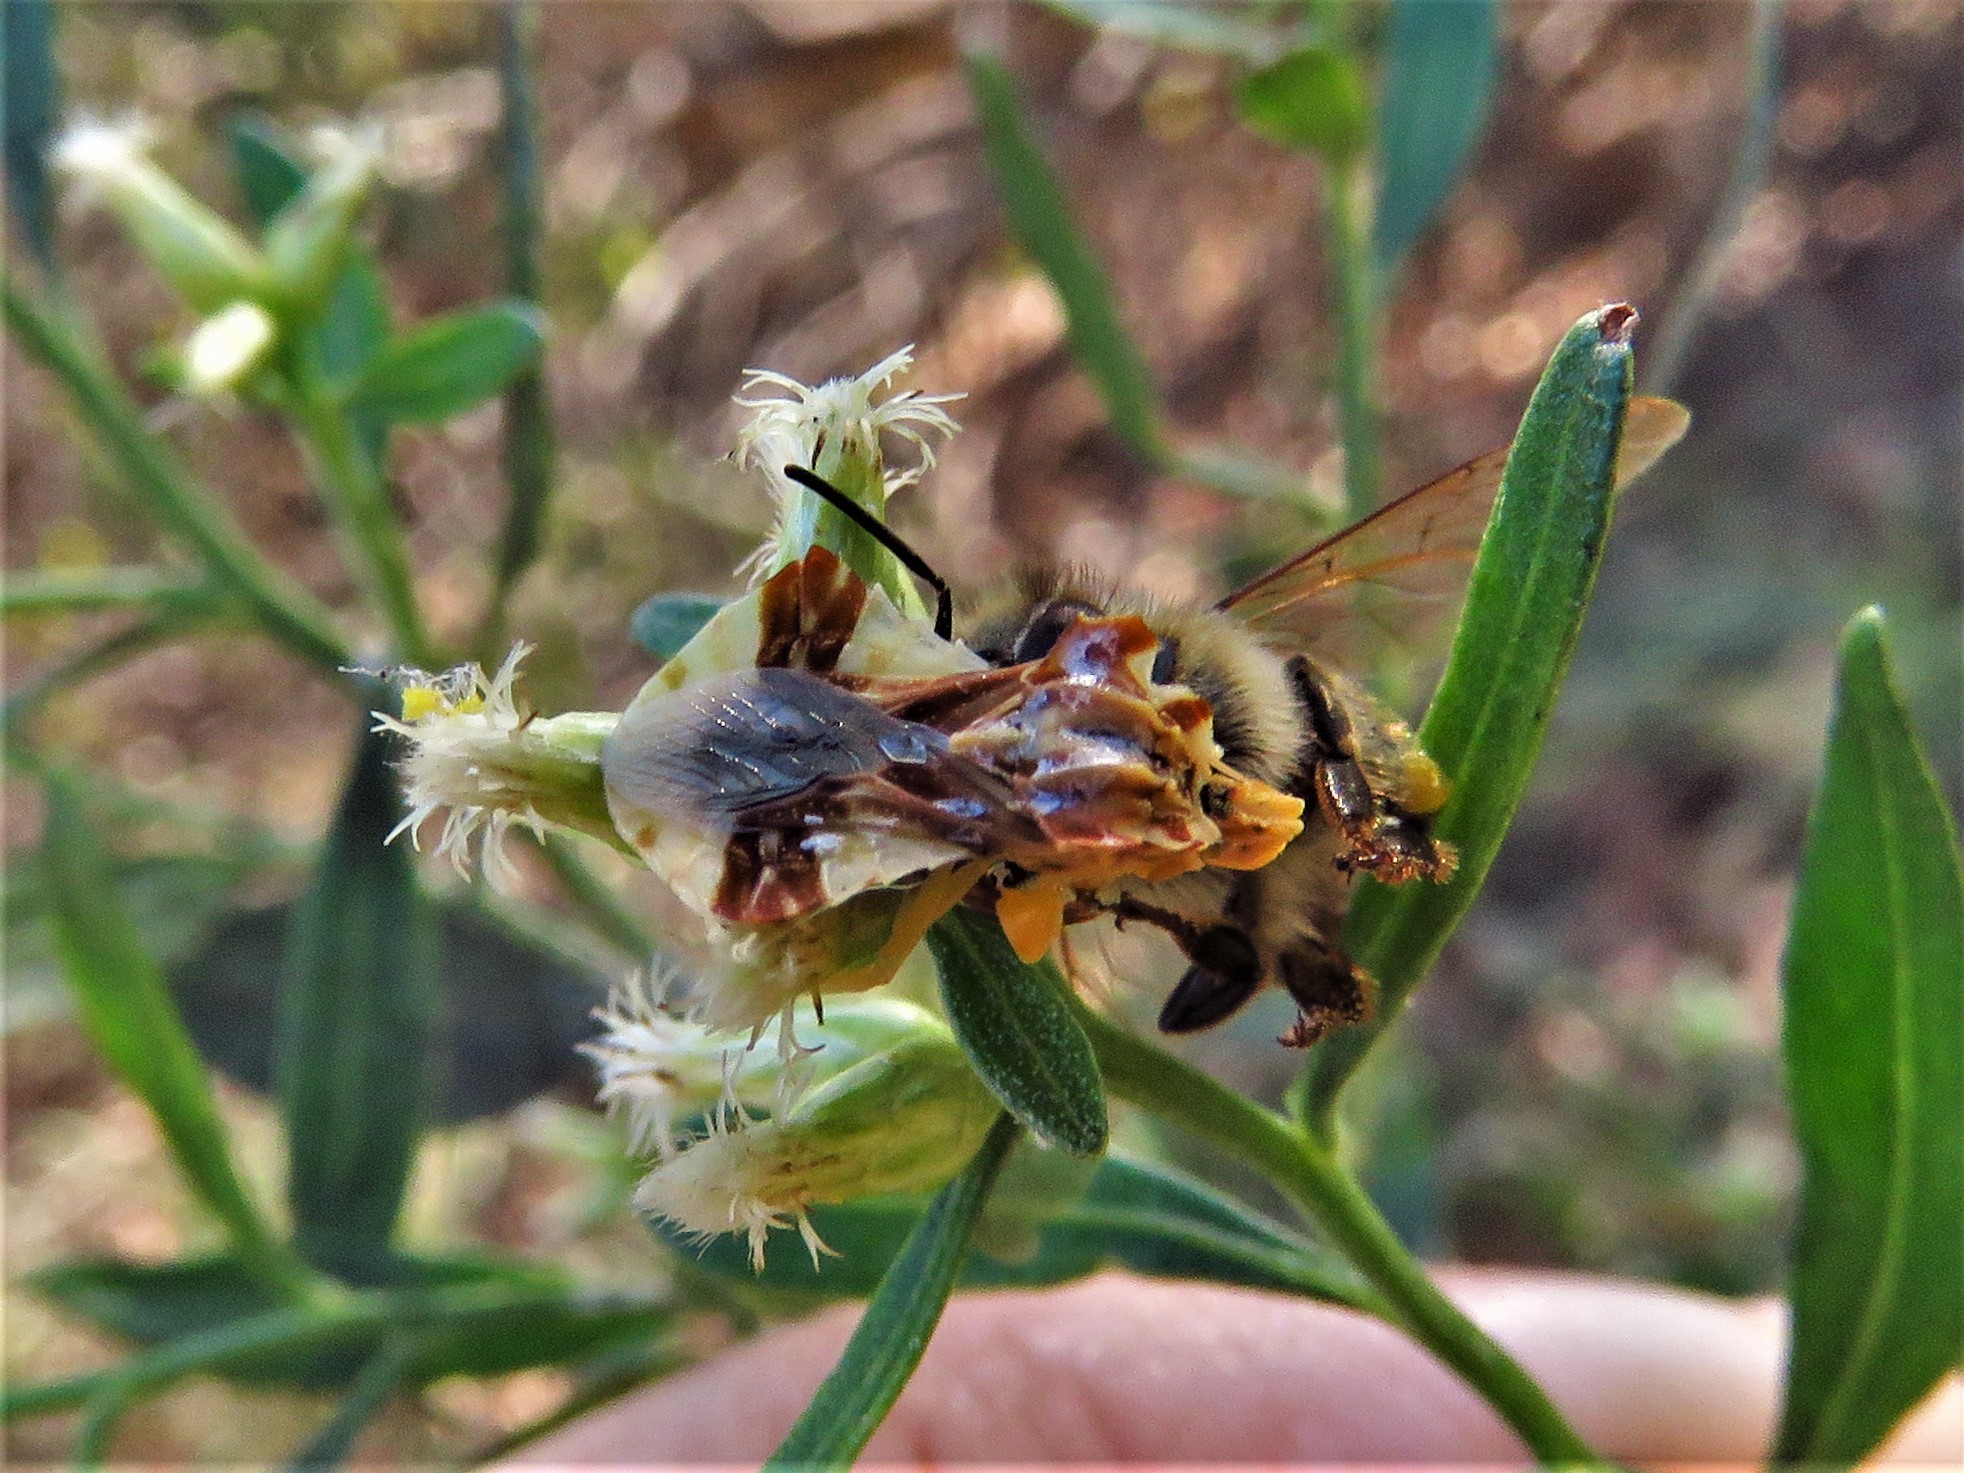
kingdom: Animalia
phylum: Arthropoda
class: Insecta
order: Hemiptera
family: Reduviidae
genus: Phymata
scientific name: Phymata fasciata
